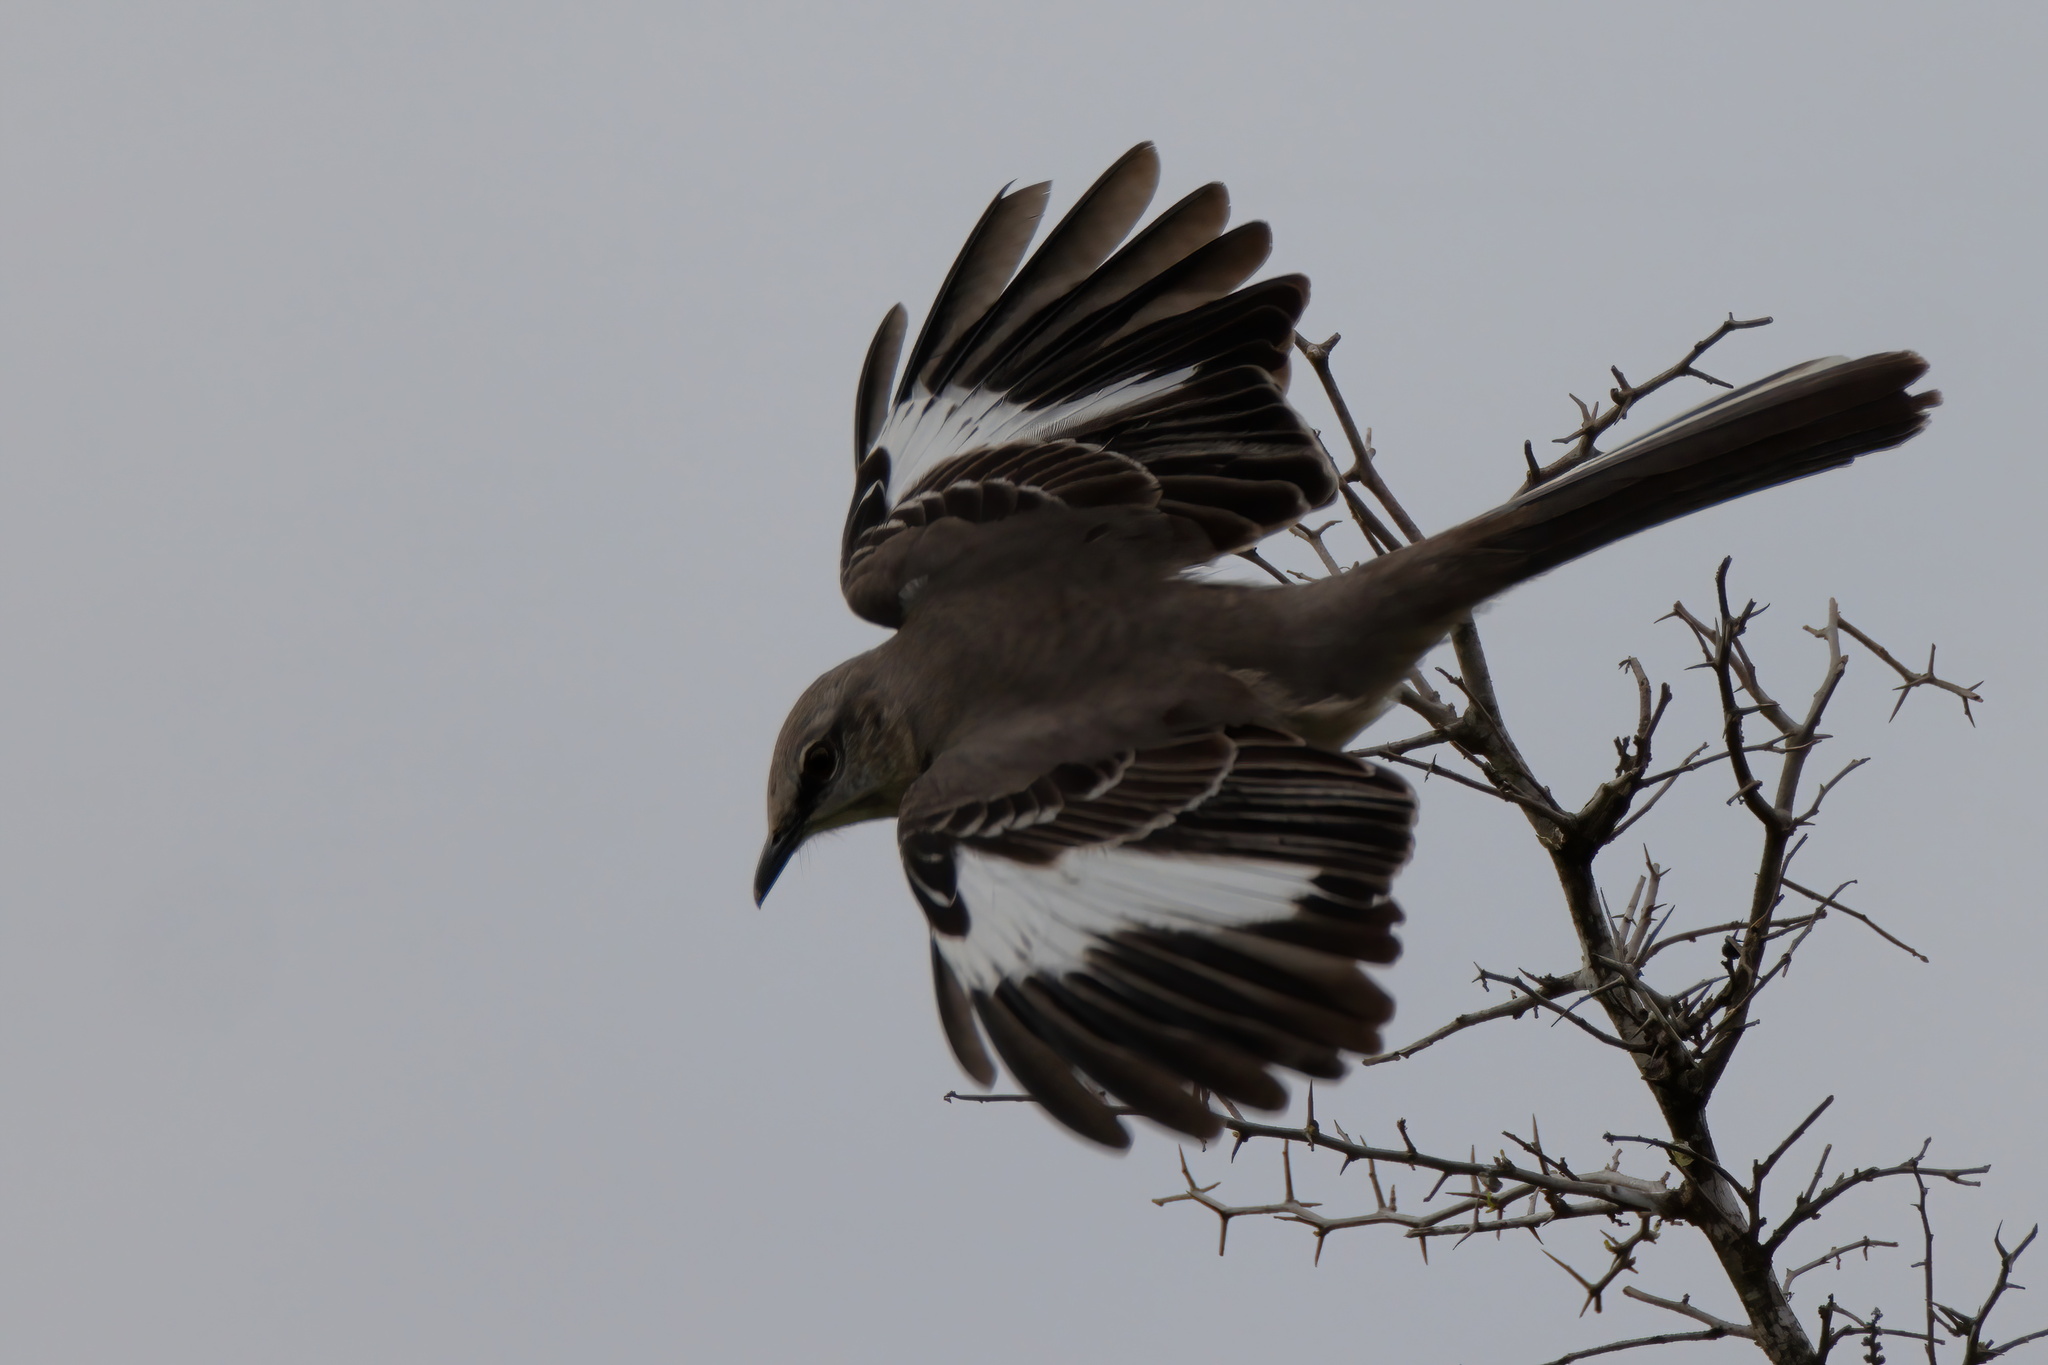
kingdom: Animalia
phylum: Chordata
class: Aves
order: Passeriformes
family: Mimidae
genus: Mimus
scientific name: Mimus polyglottos
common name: Northern mockingbird
